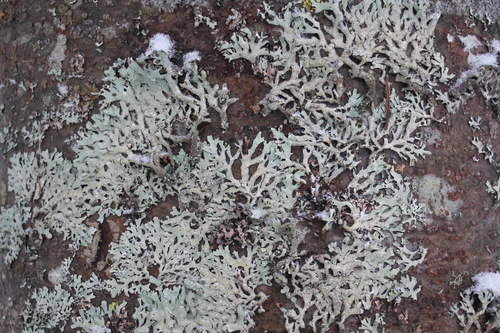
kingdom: Fungi
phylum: Ascomycota
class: Lecanoromycetes
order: Lecanorales
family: Parmeliaceae
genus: Parmelia
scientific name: Parmelia
